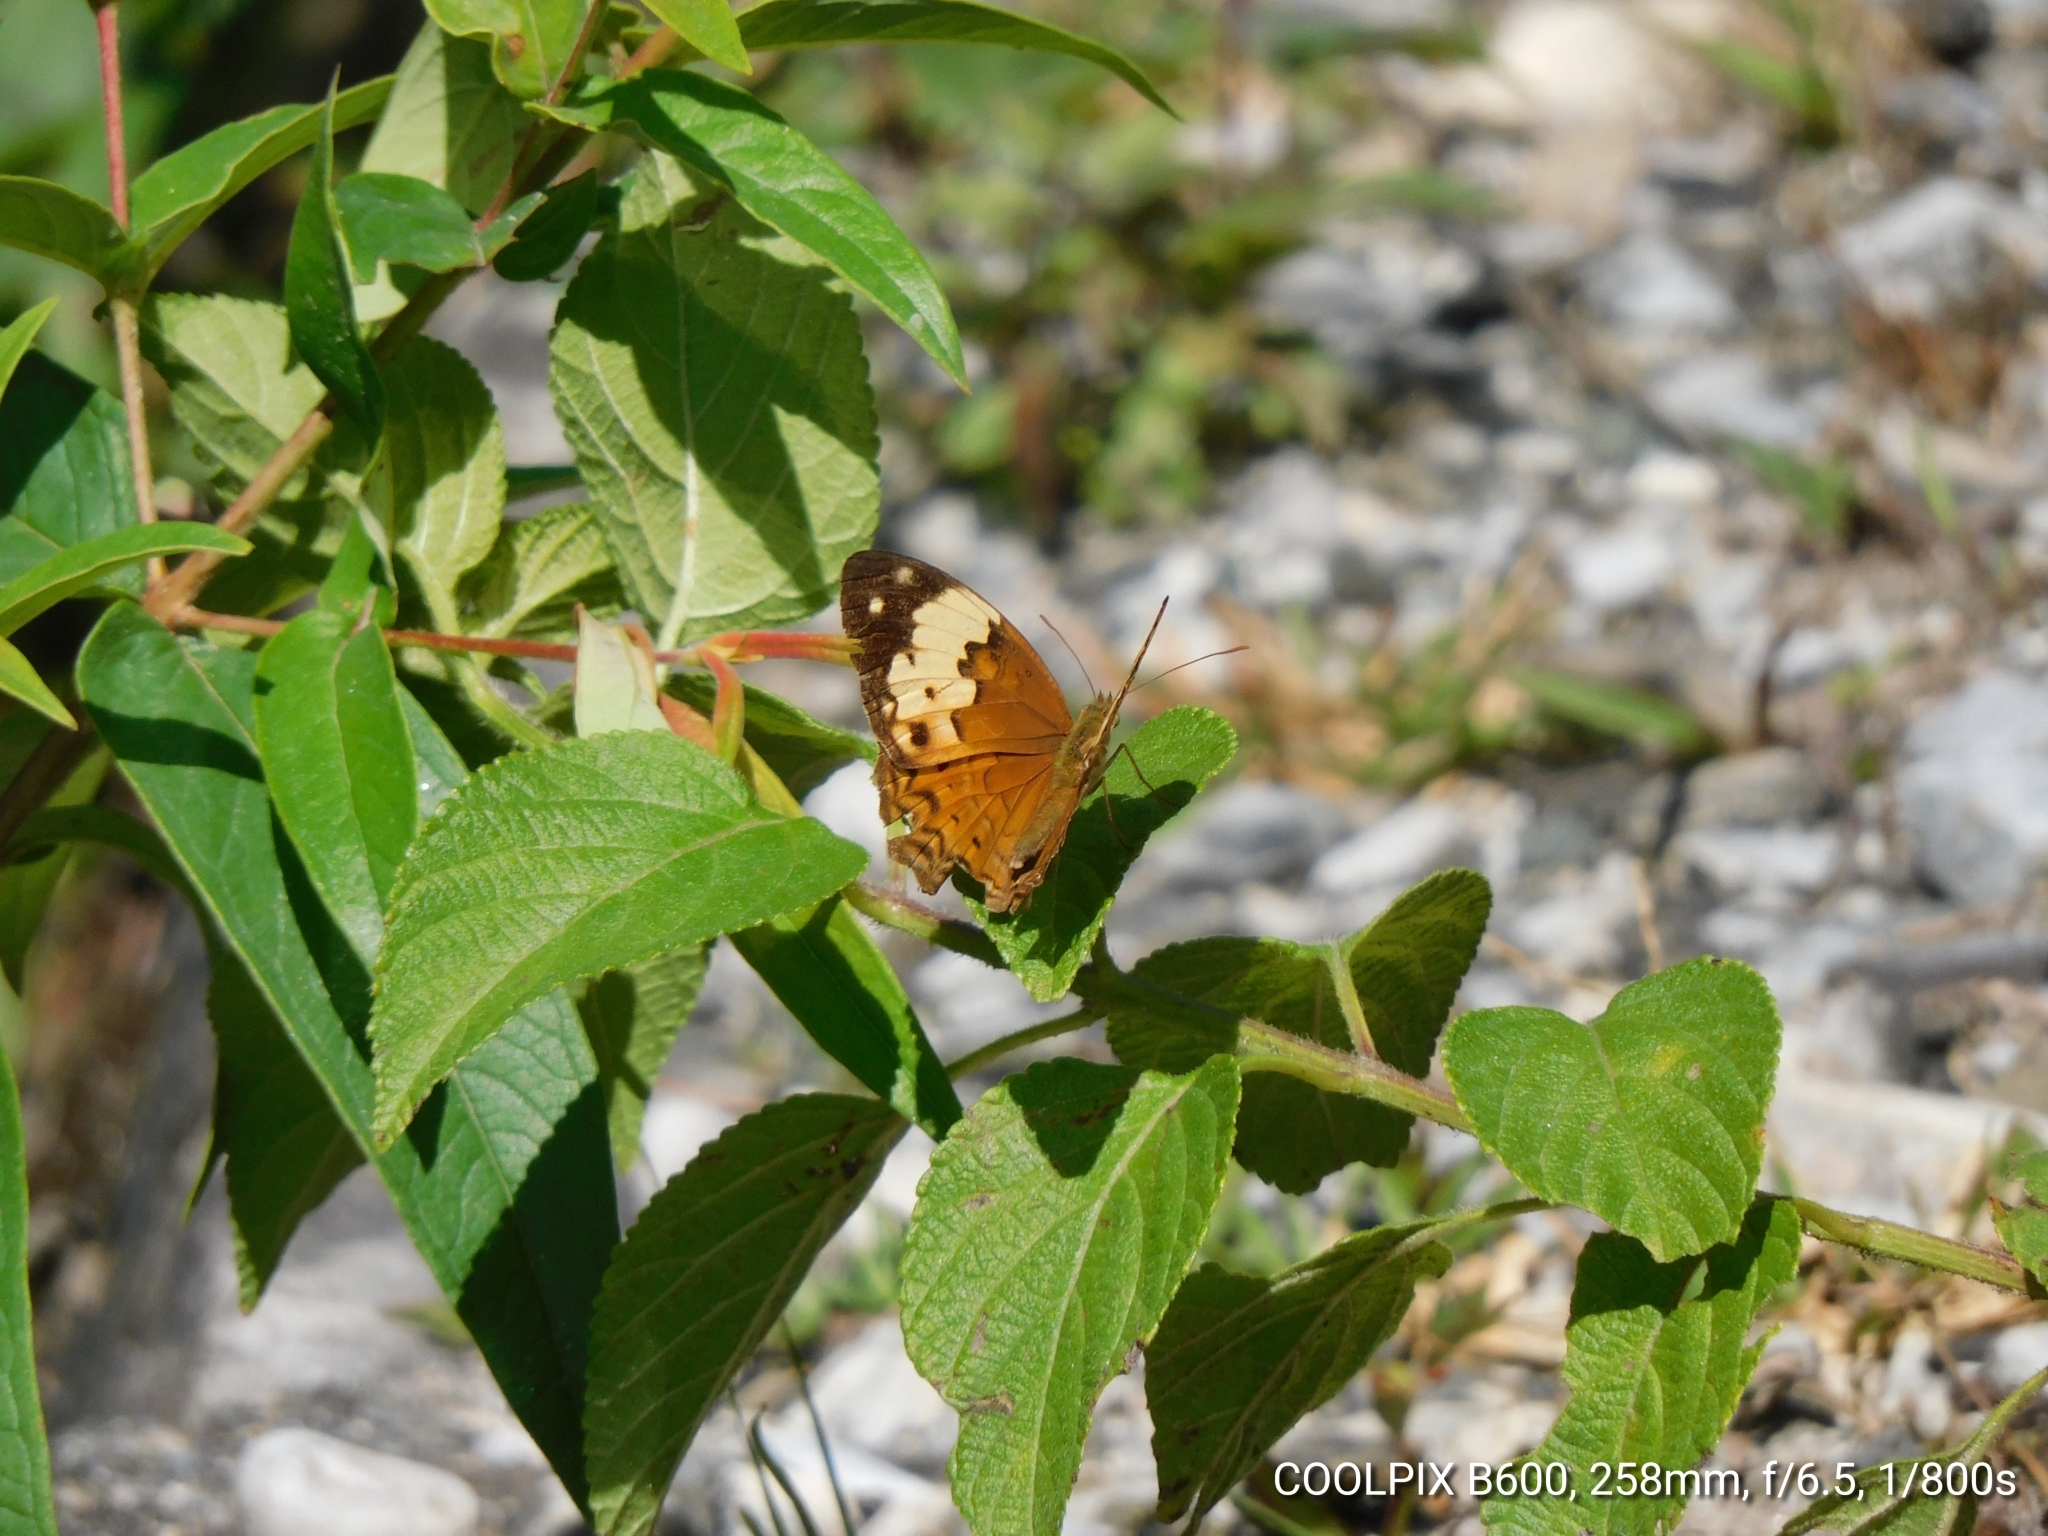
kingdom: Animalia
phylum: Arthropoda
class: Insecta
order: Lepidoptera
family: Nymphalidae
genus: Cupha
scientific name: Cupha erymanthis
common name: Rustic
